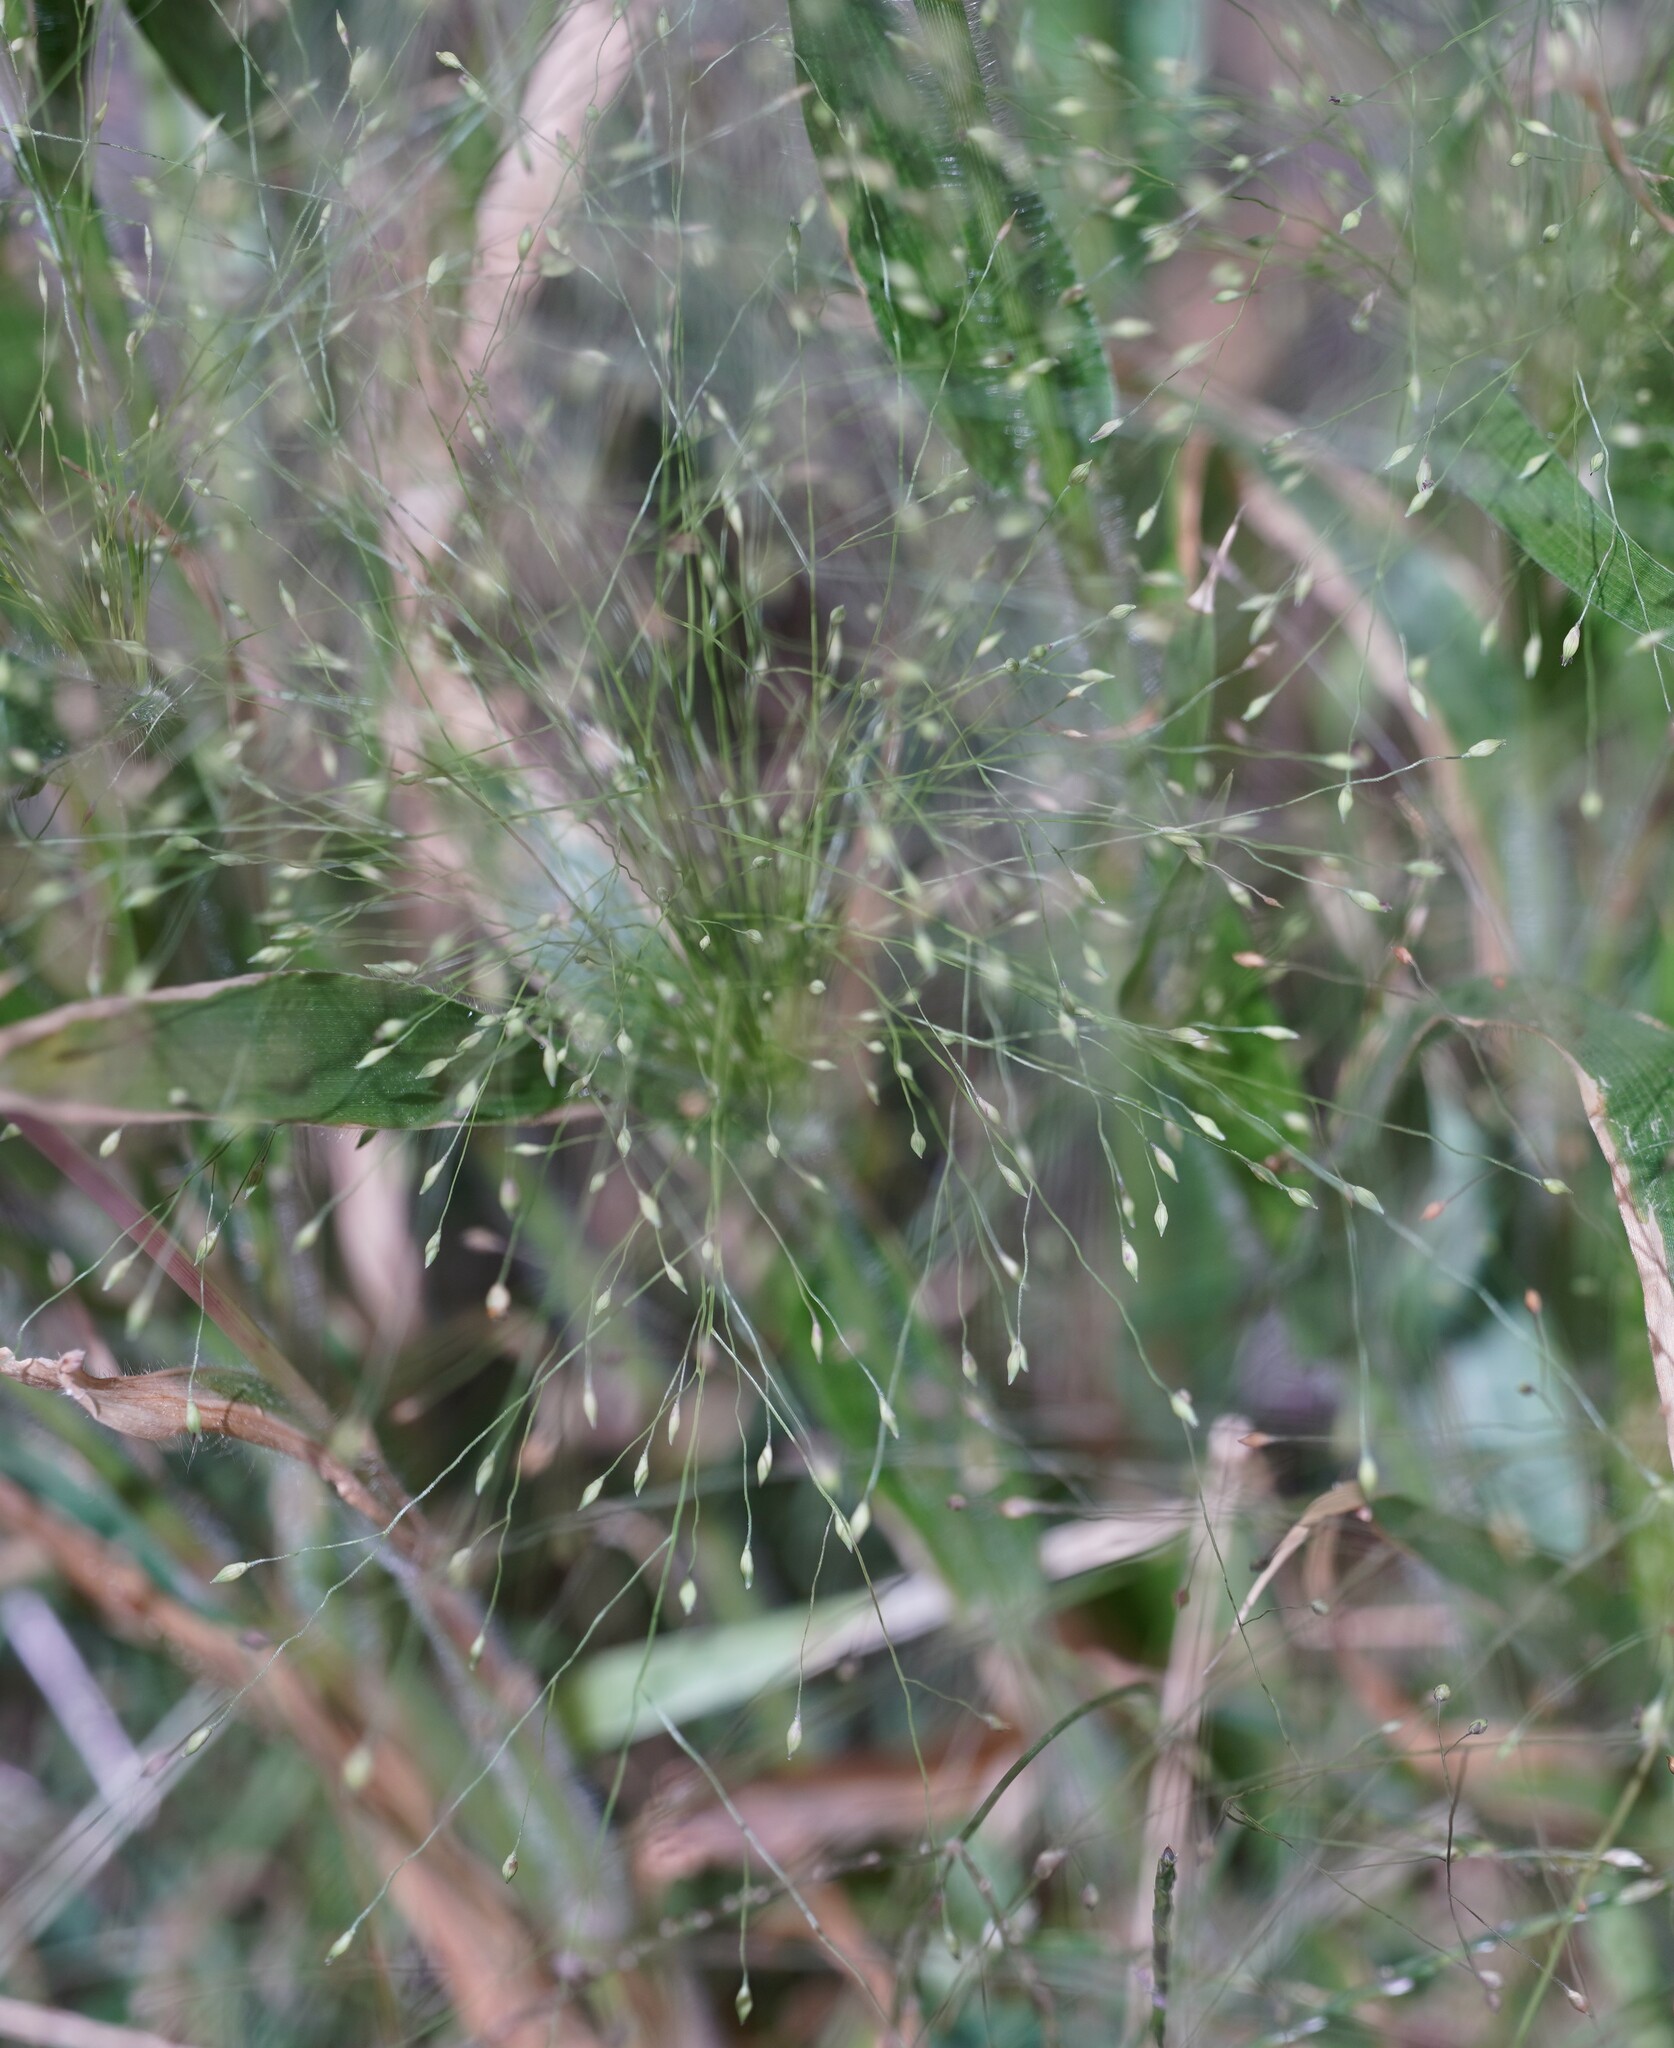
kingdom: Plantae
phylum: Tracheophyta
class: Liliopsida
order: Poales
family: Poaceae
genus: Panicum
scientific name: Panicum capillare
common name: Witch-grass
